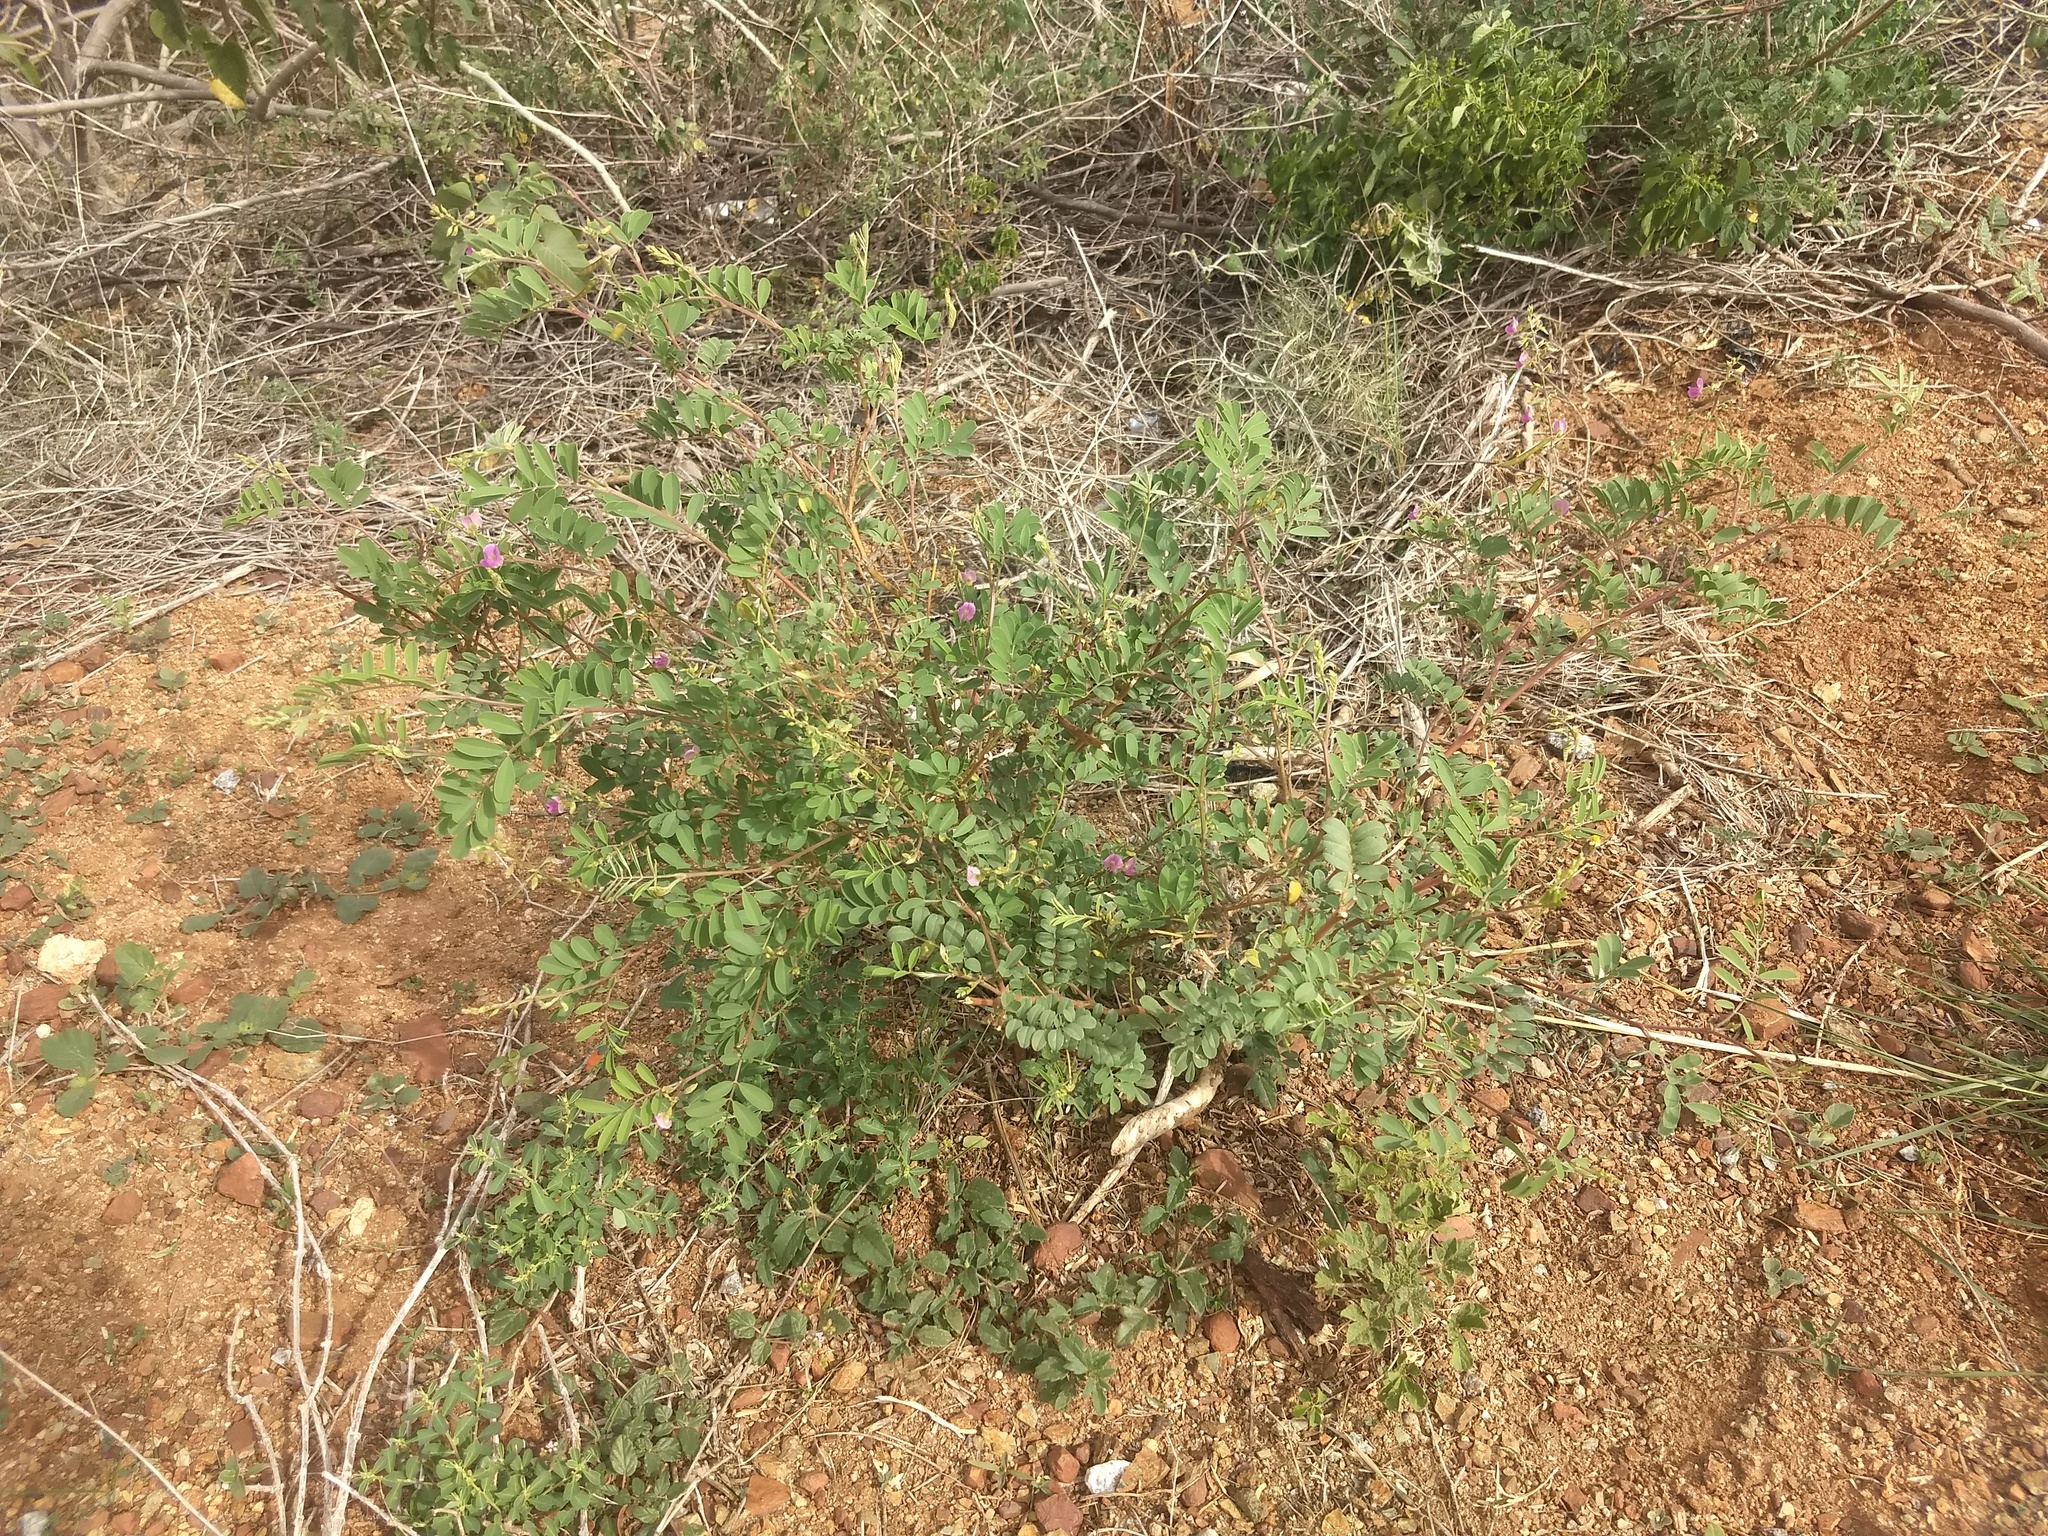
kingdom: Plantae
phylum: Tracheophyta
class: Magnoliopsida
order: Fabales
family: Fabaceae
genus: Tephrosia
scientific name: Tephrosia purpurea
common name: Fishpoison
